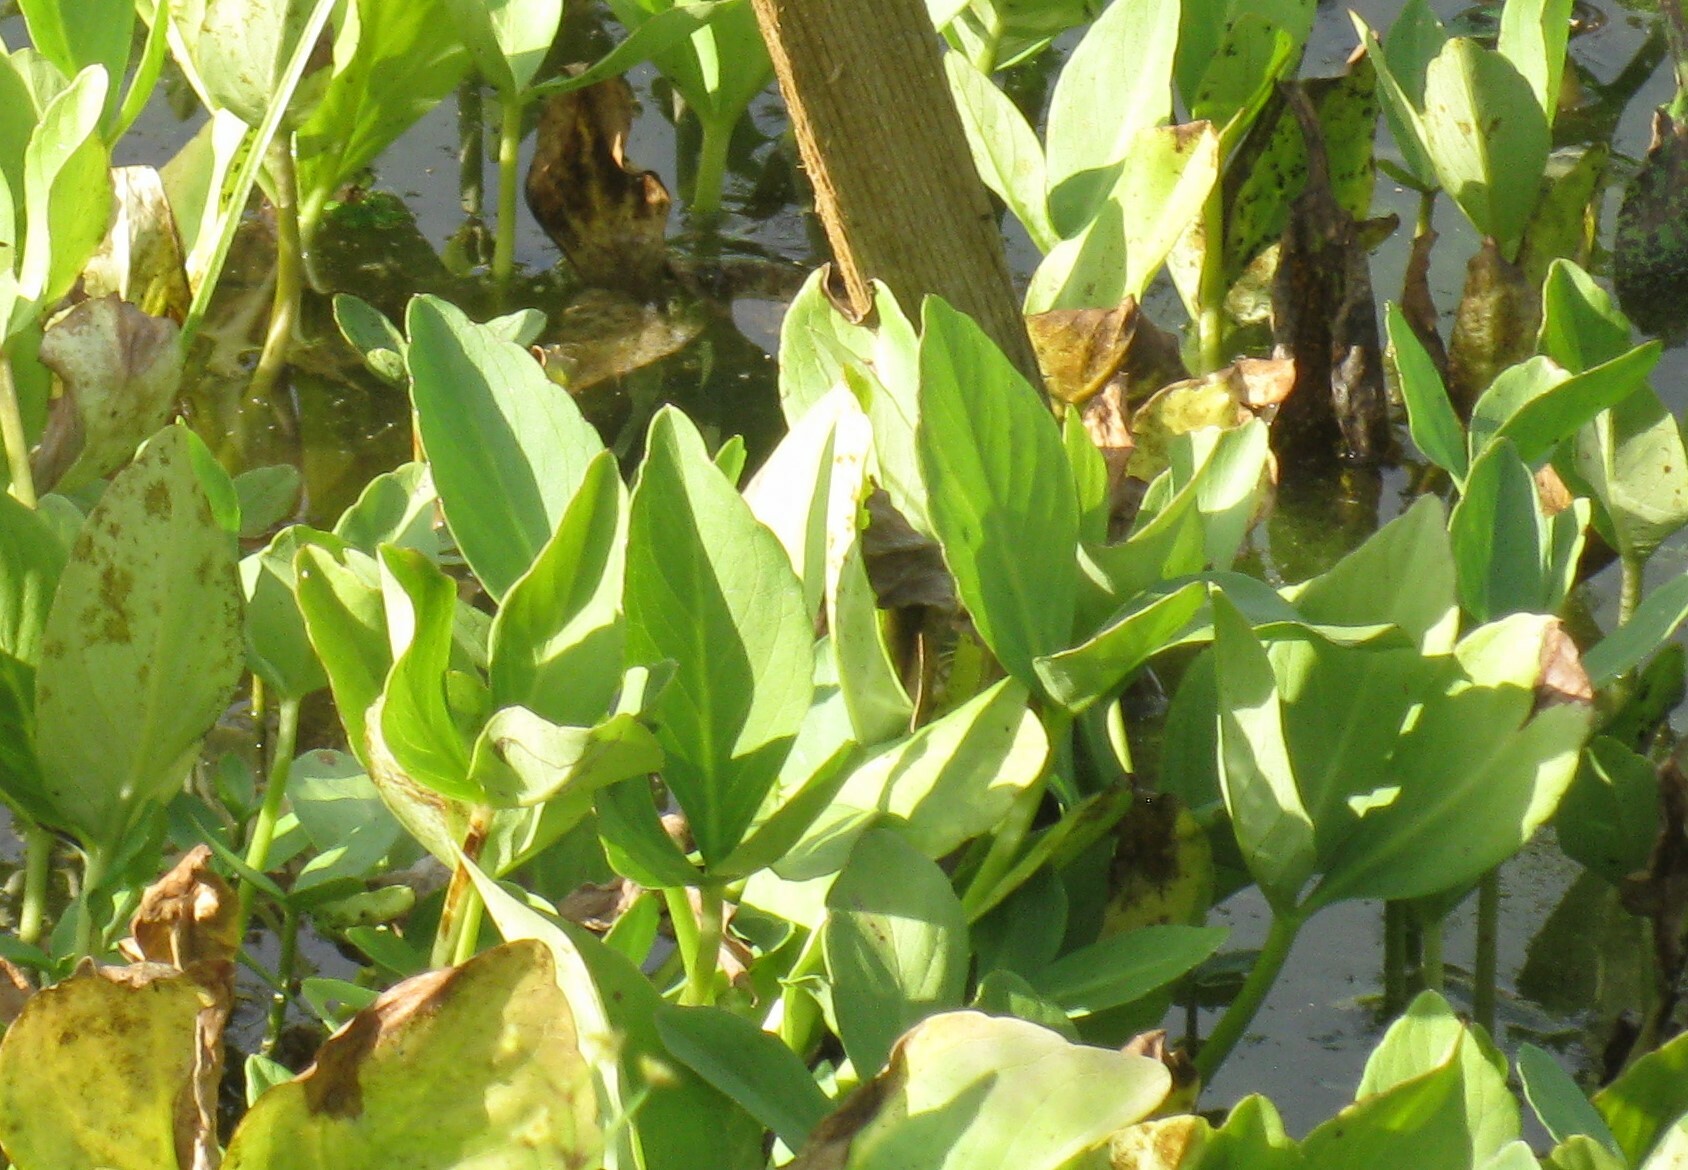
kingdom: Plantae
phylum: Tracheophyta
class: Magnoliopsida
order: Asterales
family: Menyanthaceae
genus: Menyanthes
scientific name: Menyanthes trifoliata
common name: Bogbean
